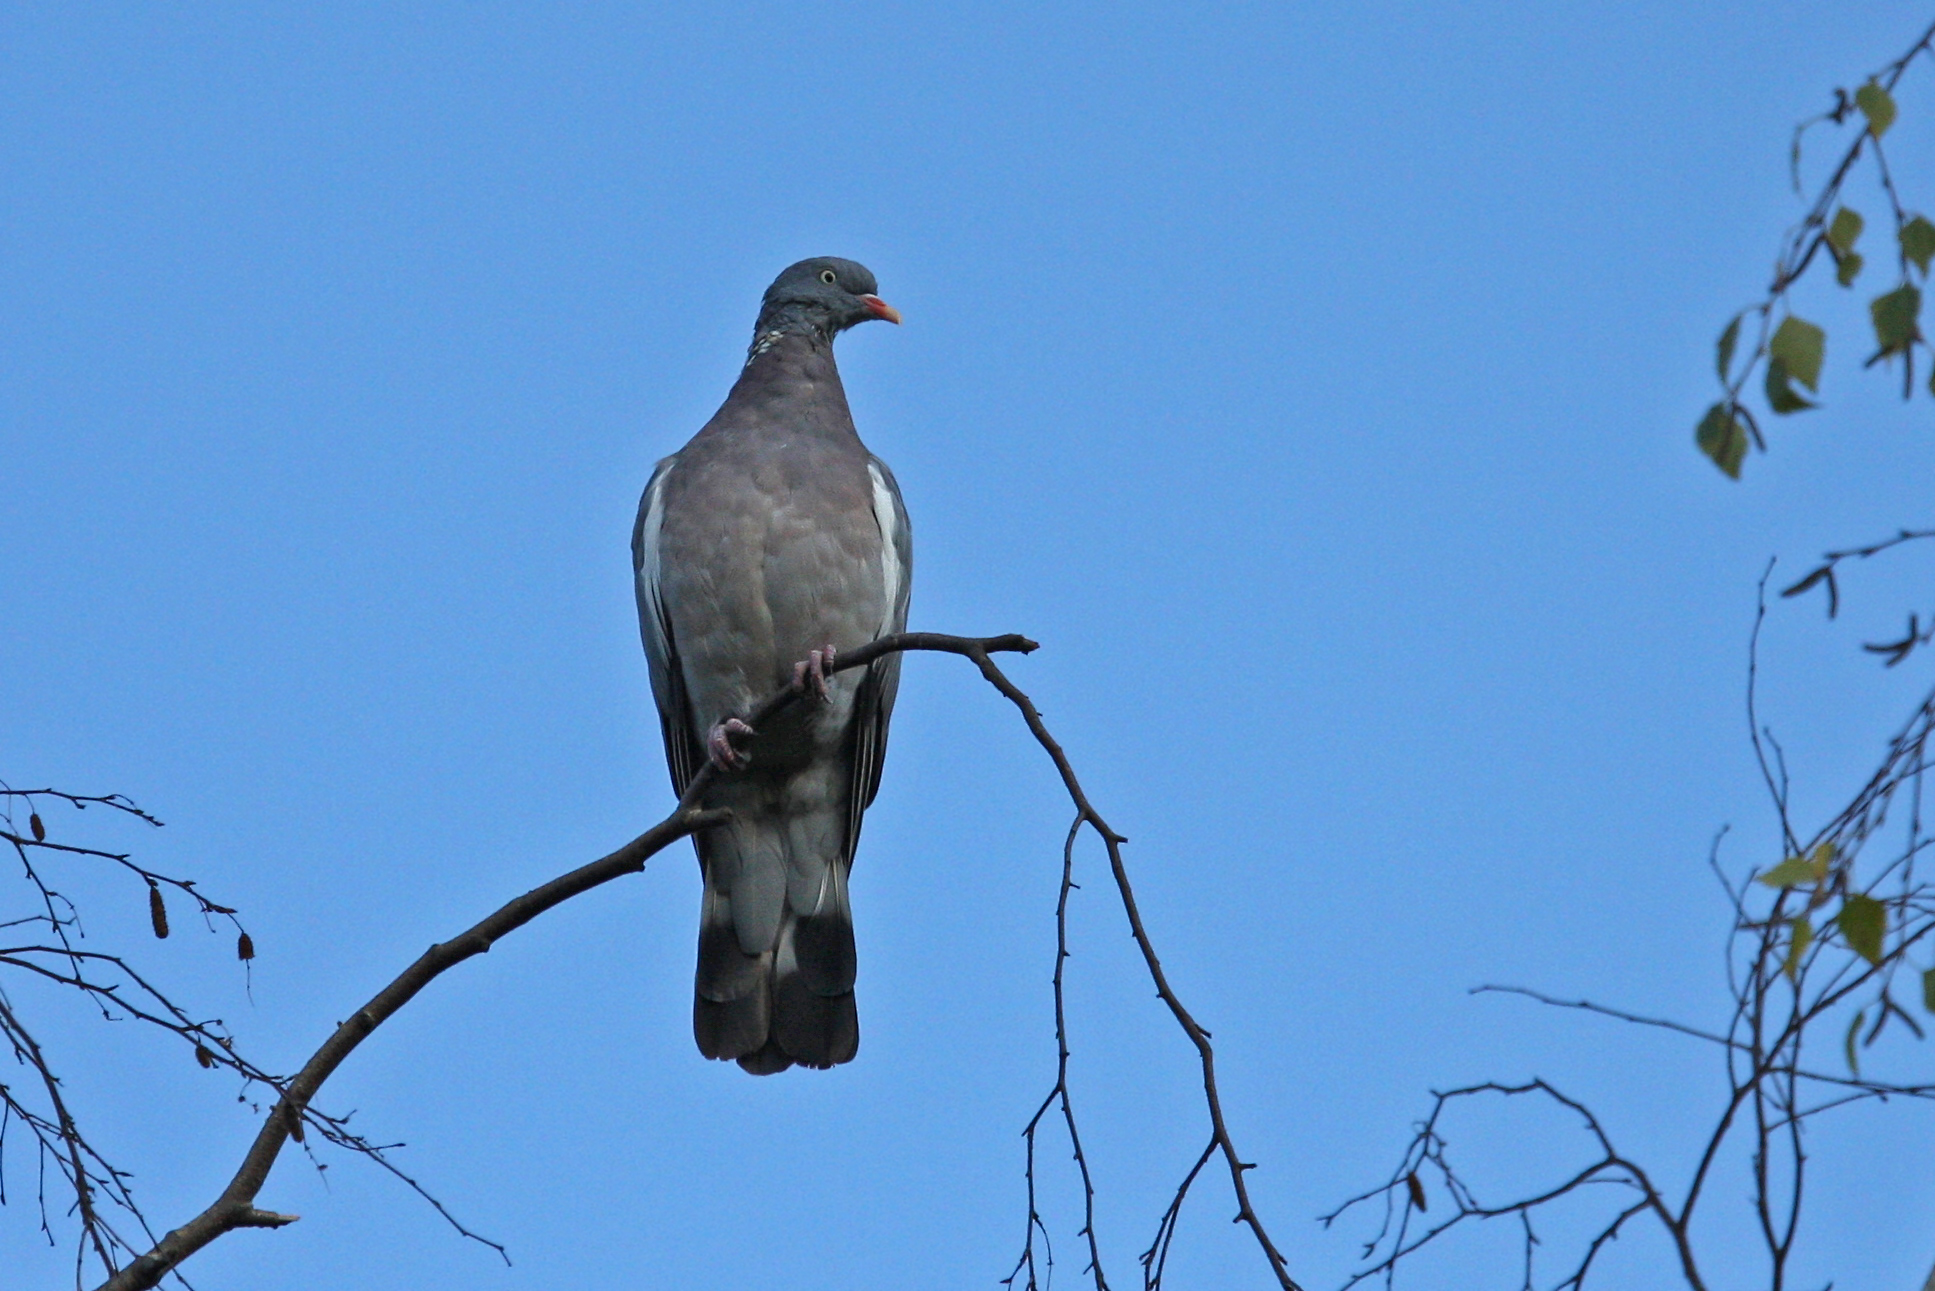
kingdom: Animalia
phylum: Chordata
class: Aves
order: Columbiformes
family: Columbidae
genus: Columba
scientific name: Columba palumbus
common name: Common wood pigeon
